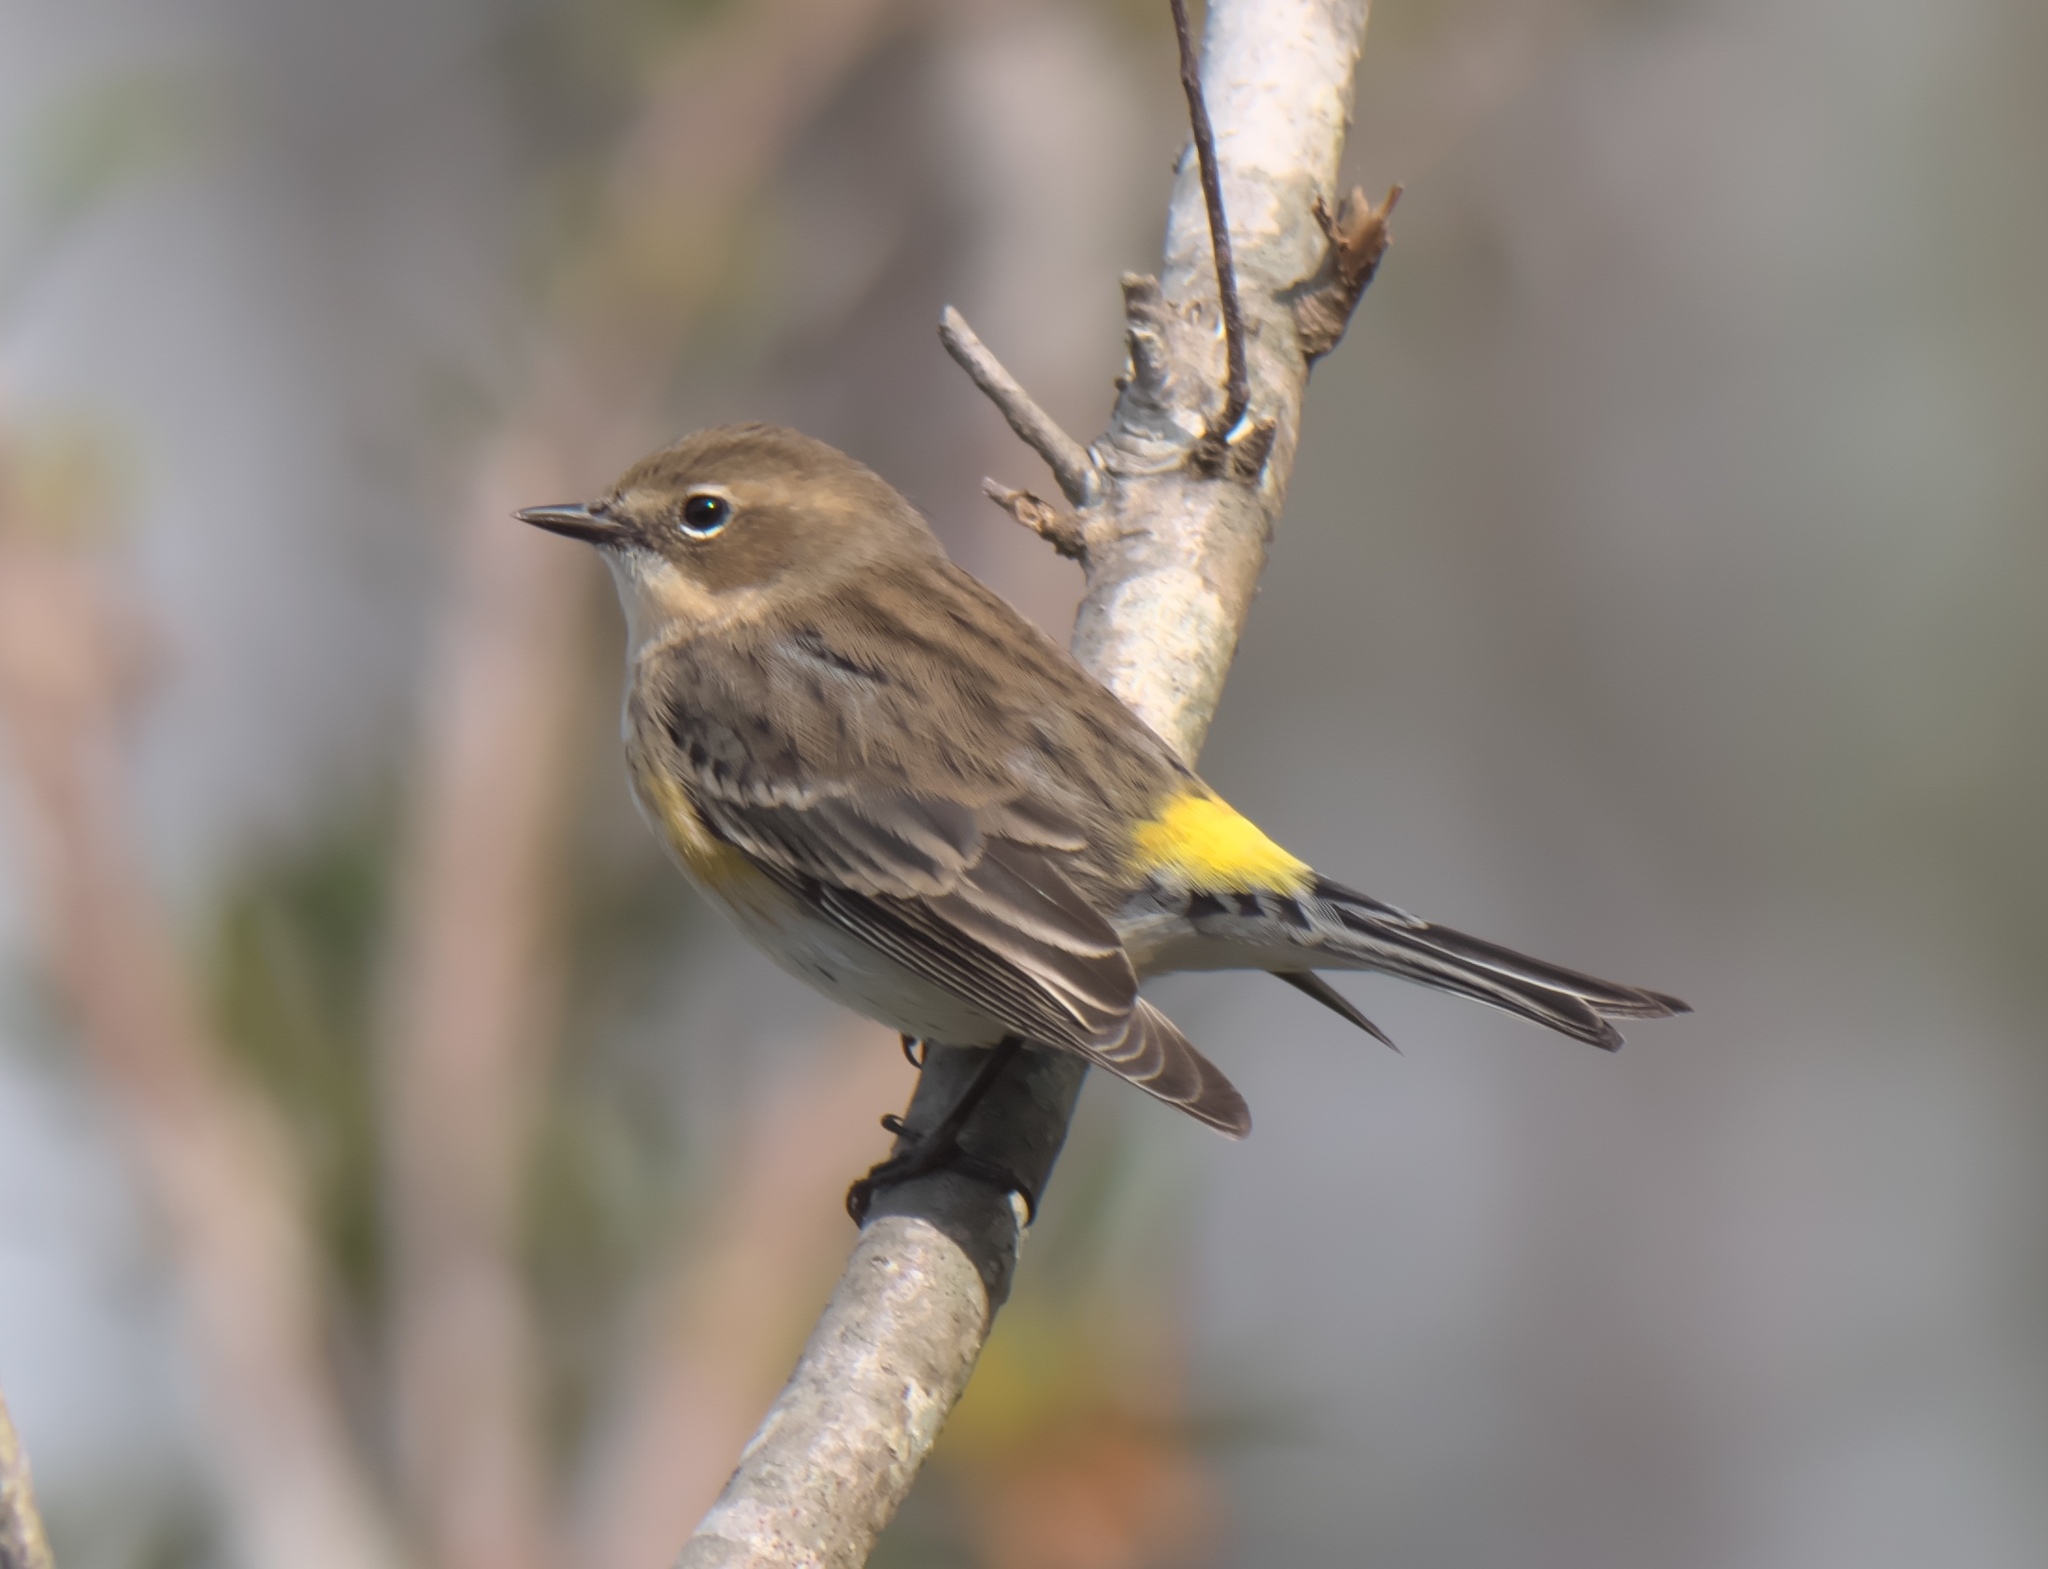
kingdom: Animalia
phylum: Chordata
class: Aves
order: Passeriformes
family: Parulidae
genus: Setophaga
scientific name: Setophaga coronata
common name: Myrtle warbler
